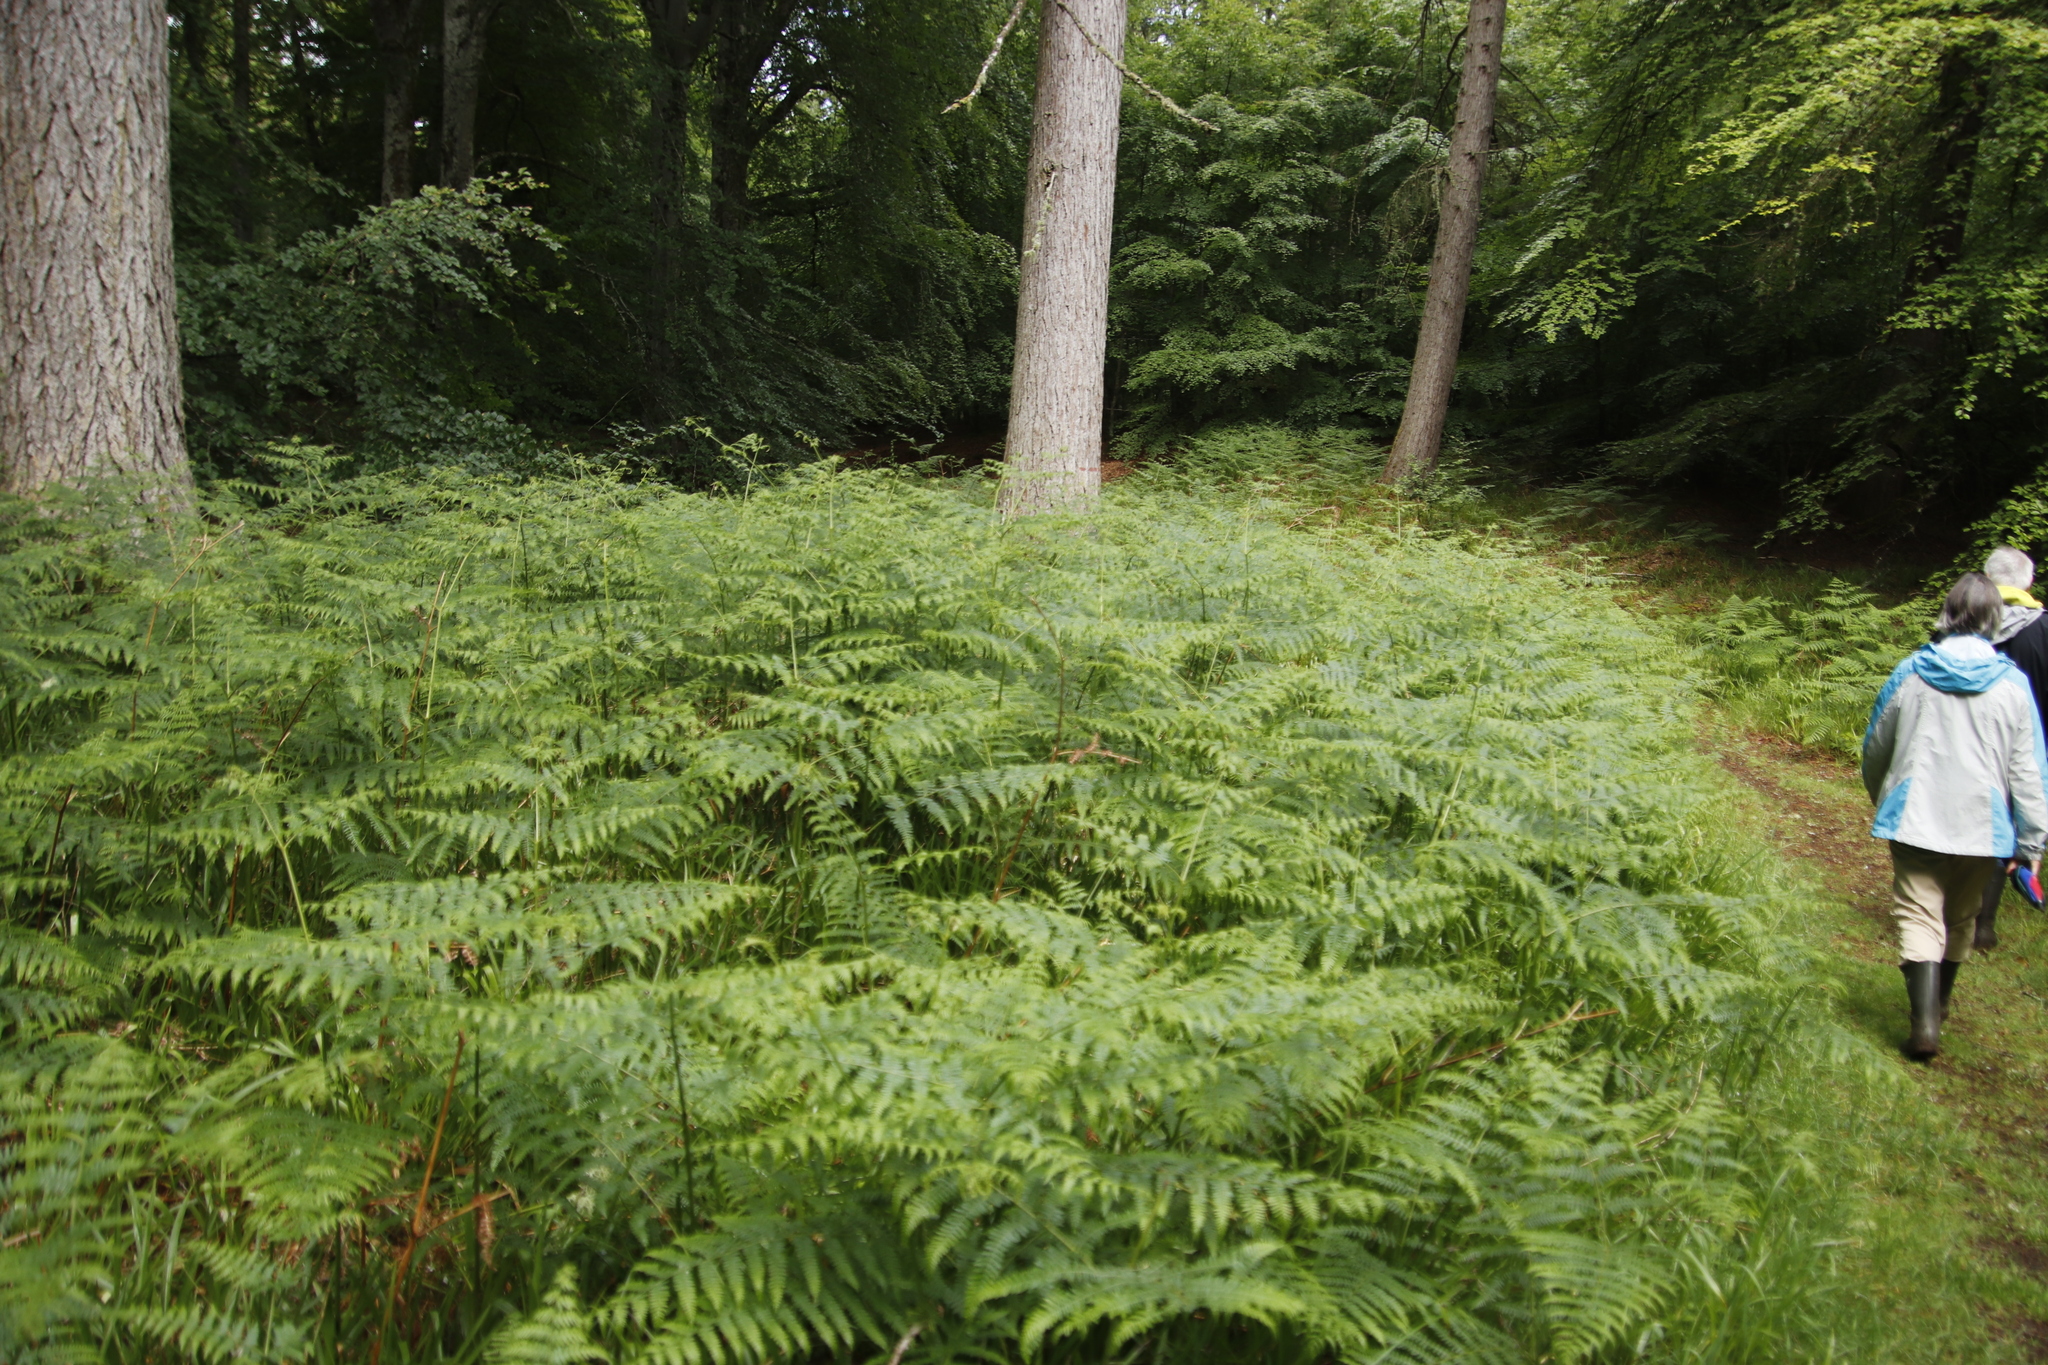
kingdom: Plantae
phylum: Tracheophyta
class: Polypodiopsida
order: Polypodiales
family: Dennstaedtiaceae
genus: Pteridium
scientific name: Pteridium aquilinum
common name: Bracken
